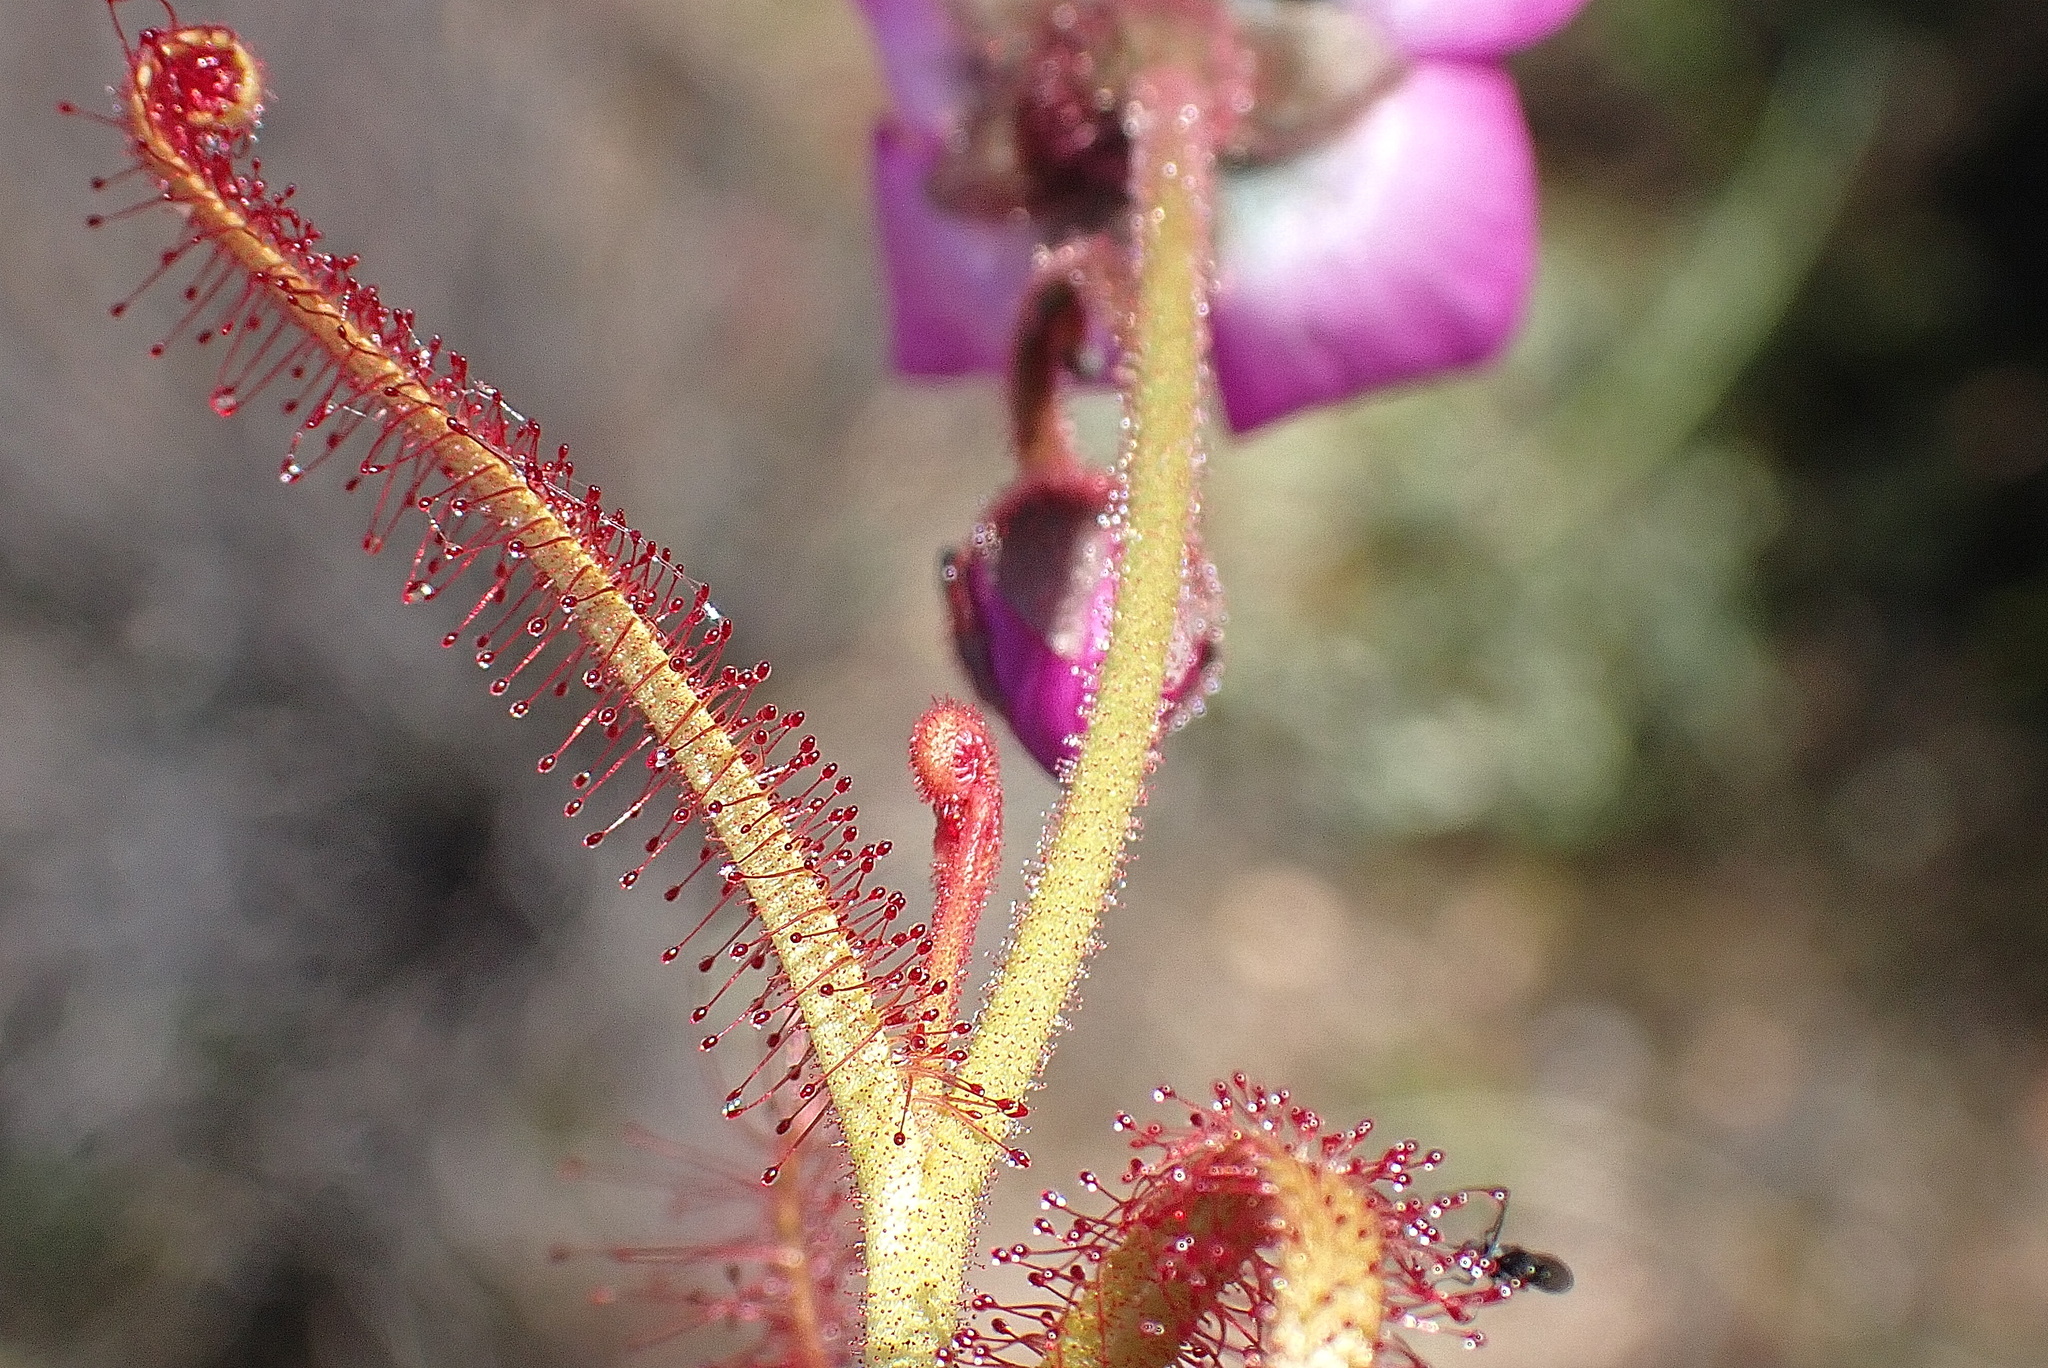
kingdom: Plantae
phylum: Tracheophyta
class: Magnoliopsida
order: Caryophyllales
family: Droseraceae
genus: Drosera
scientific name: Drosera cistiflora
